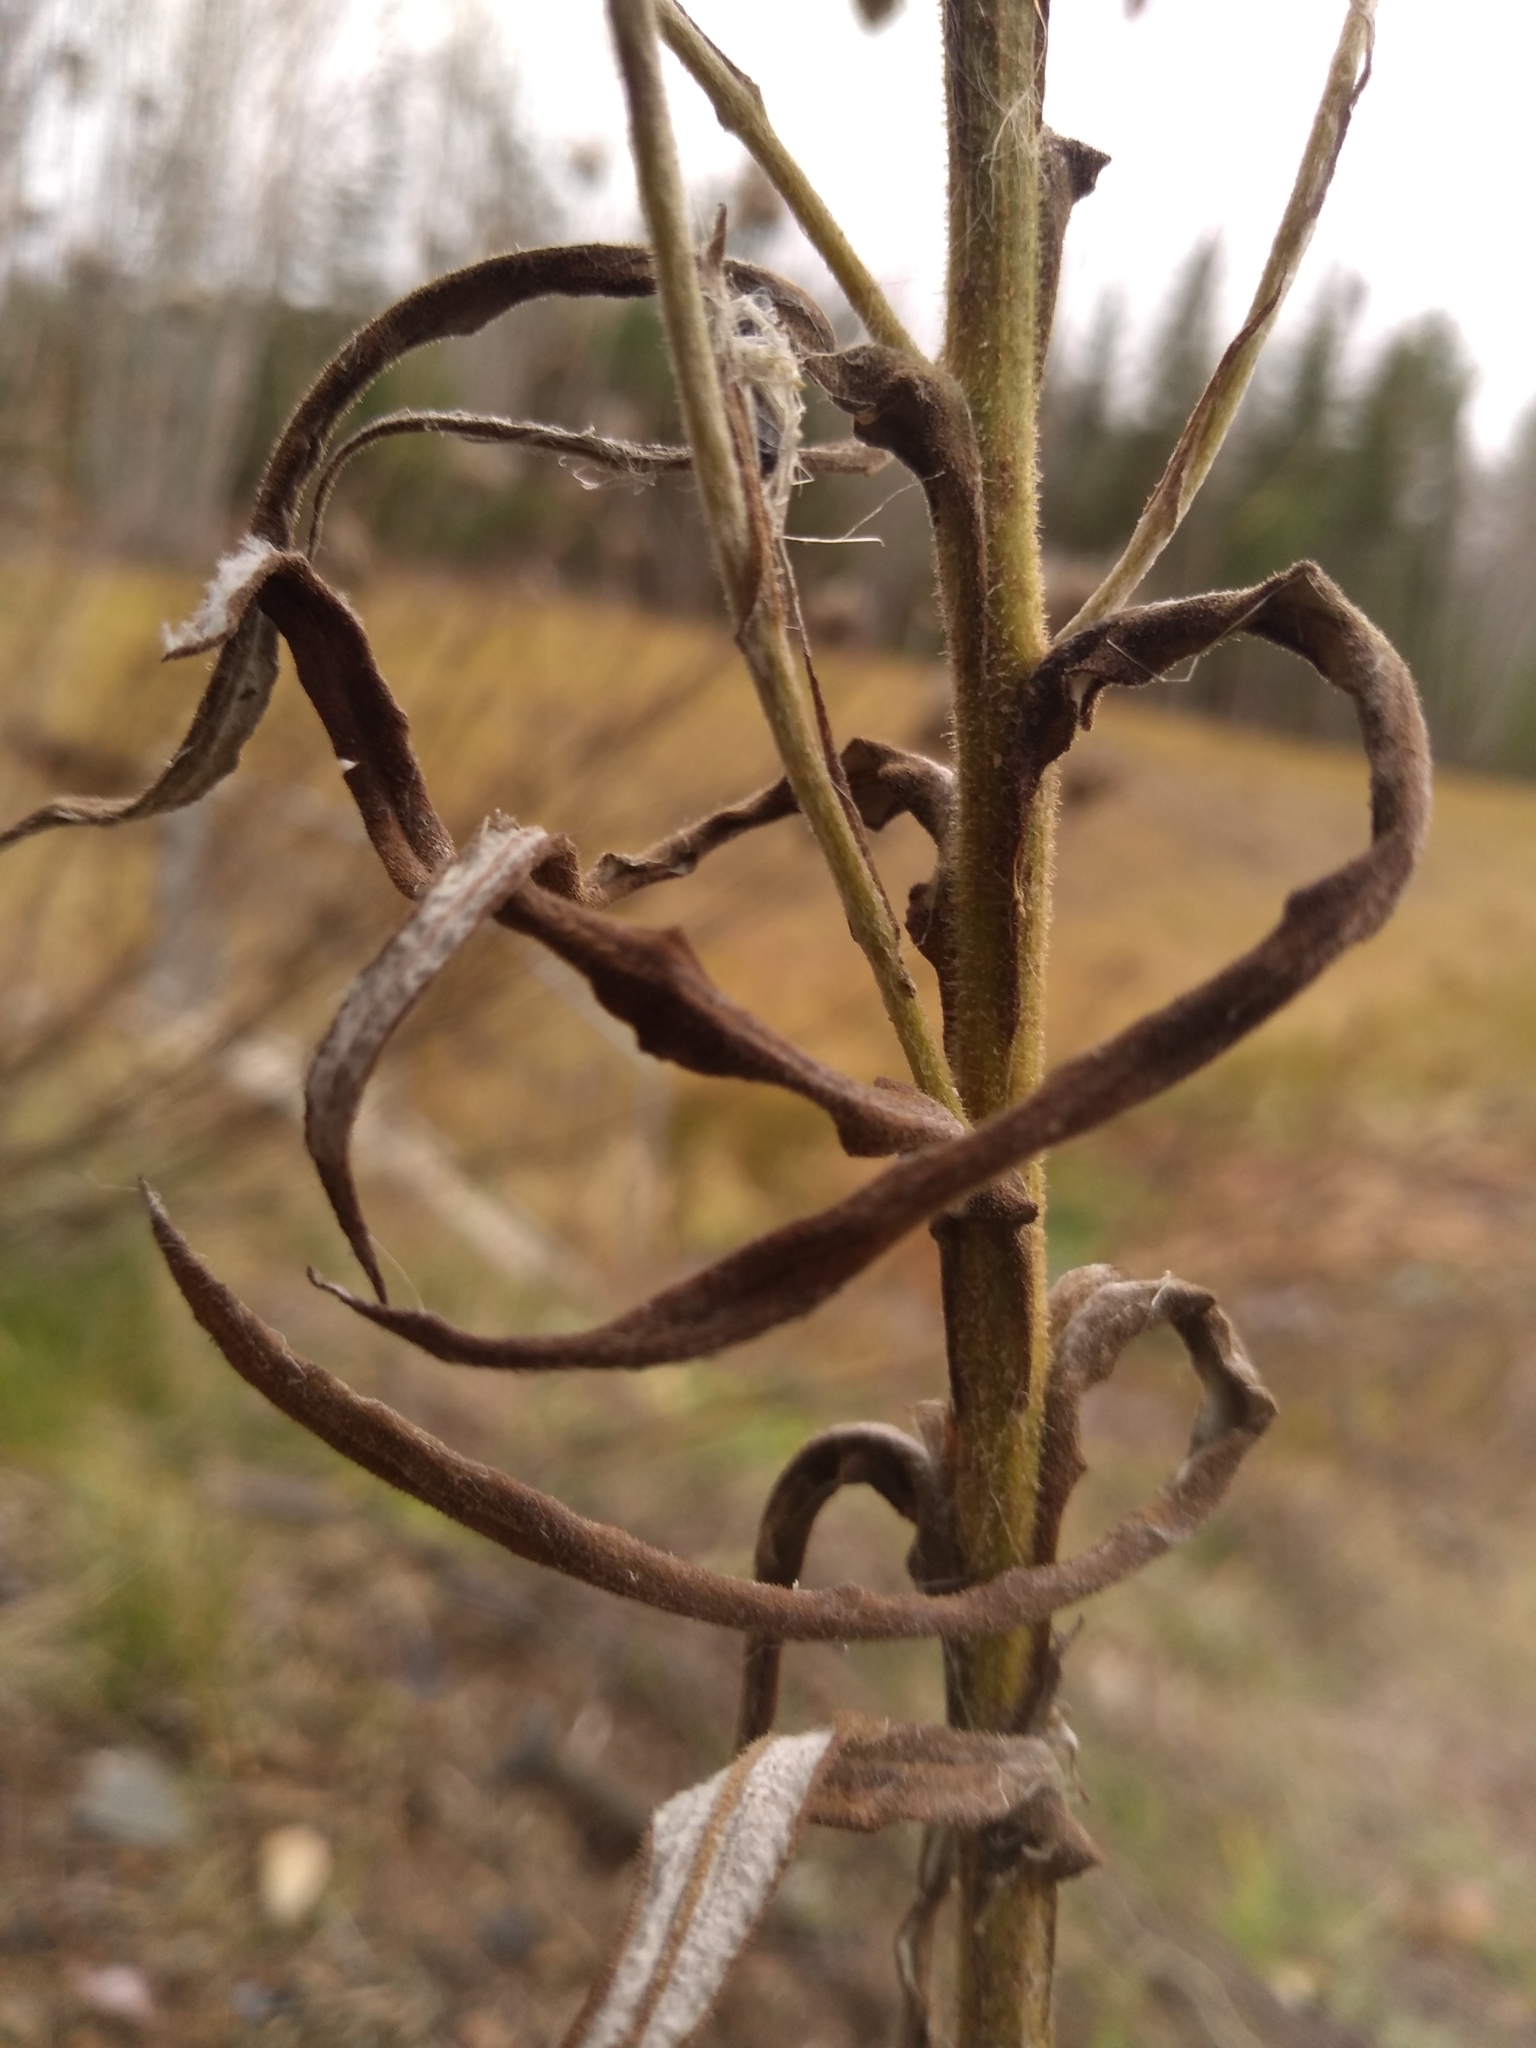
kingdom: Plantae
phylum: Tracheophyta
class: Magnoliopsida
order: Asterales
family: Asteraceae
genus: Pseudognaphalium
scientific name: Pseudognaphalium macounii
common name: Clammy cudweed
